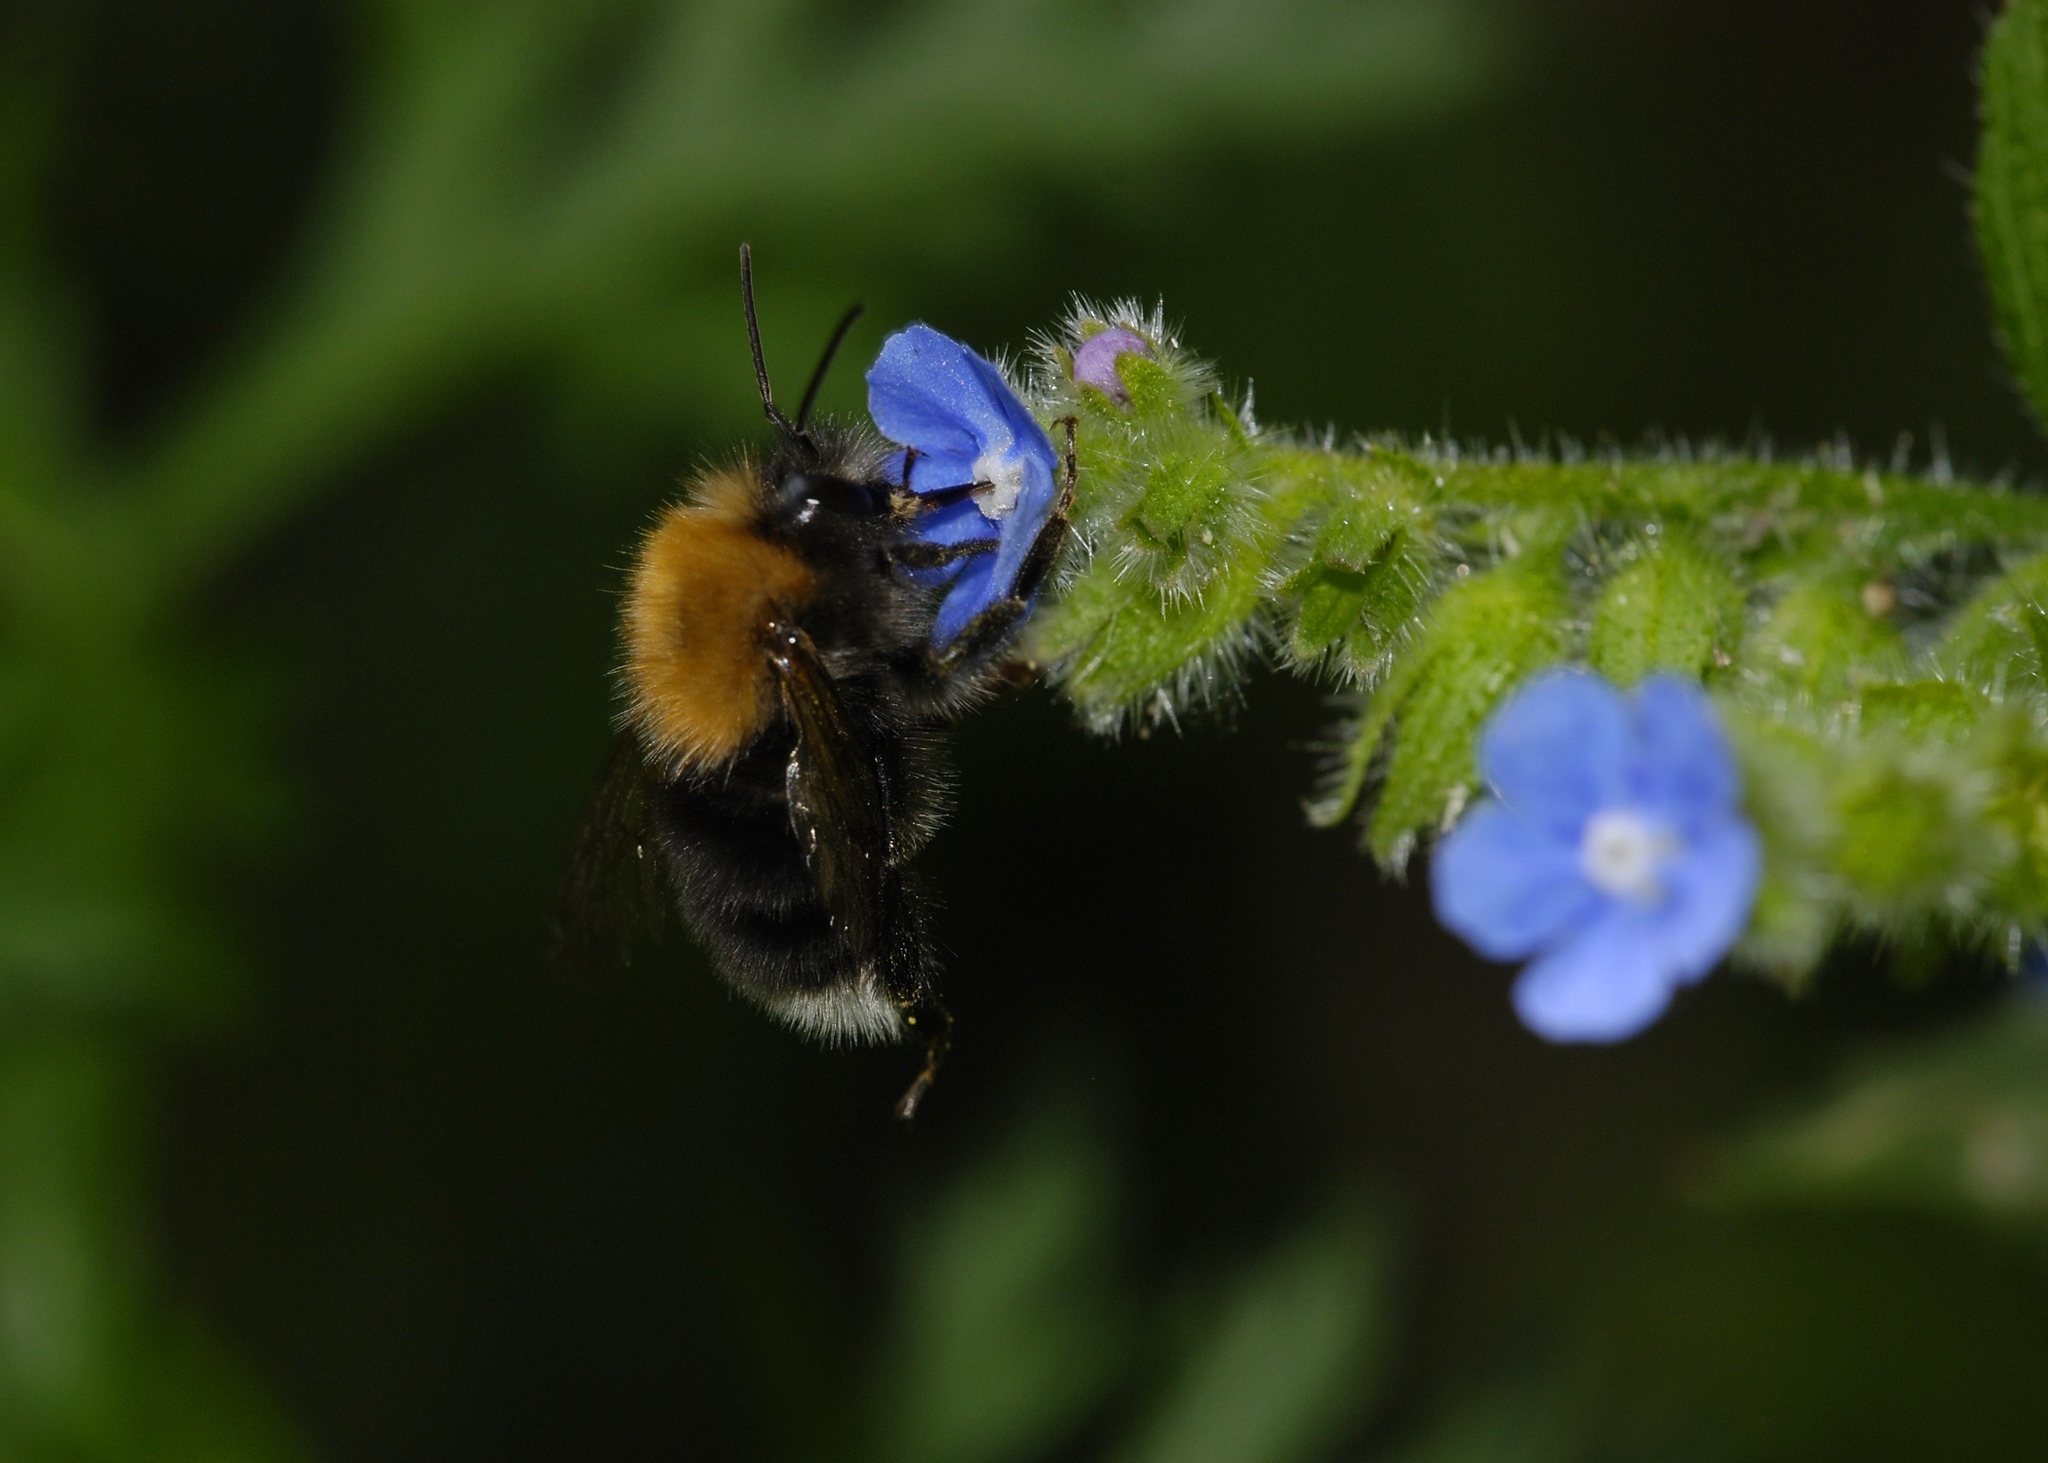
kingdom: Animalia
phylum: Arthropoda
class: Insecta
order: Hymenoptera
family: Apidae
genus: Bombus
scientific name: Bombus hypnorum
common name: New garden bumblebee
